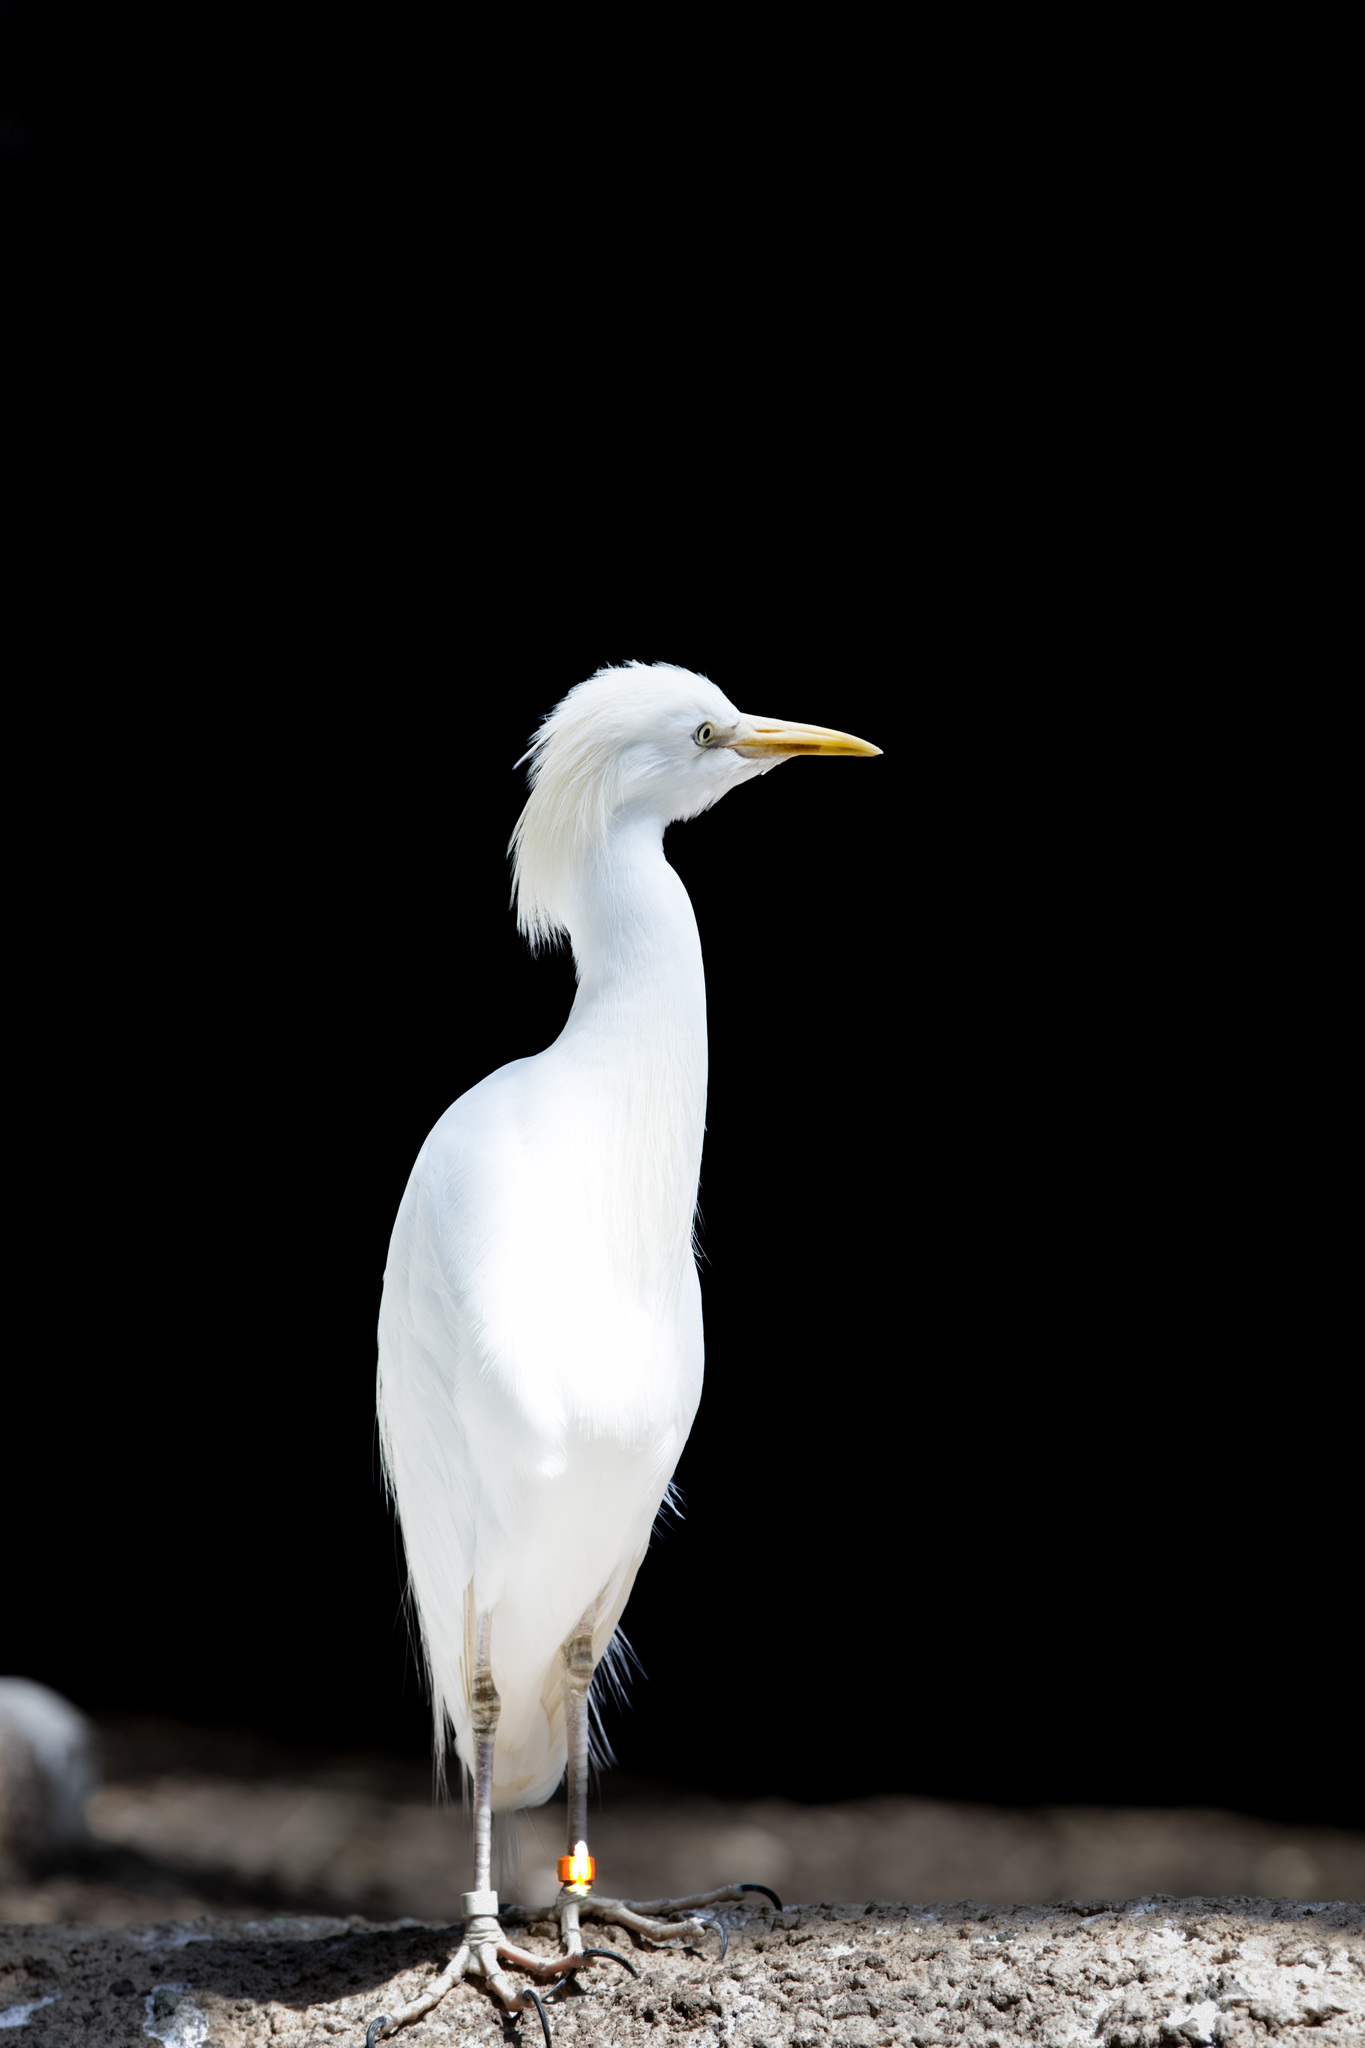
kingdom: Animalia
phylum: Chordata
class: Aves
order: Pelecaniformes
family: Ardeidae
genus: Bubulcus
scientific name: Bubulcus ibis
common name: Cattle egret
